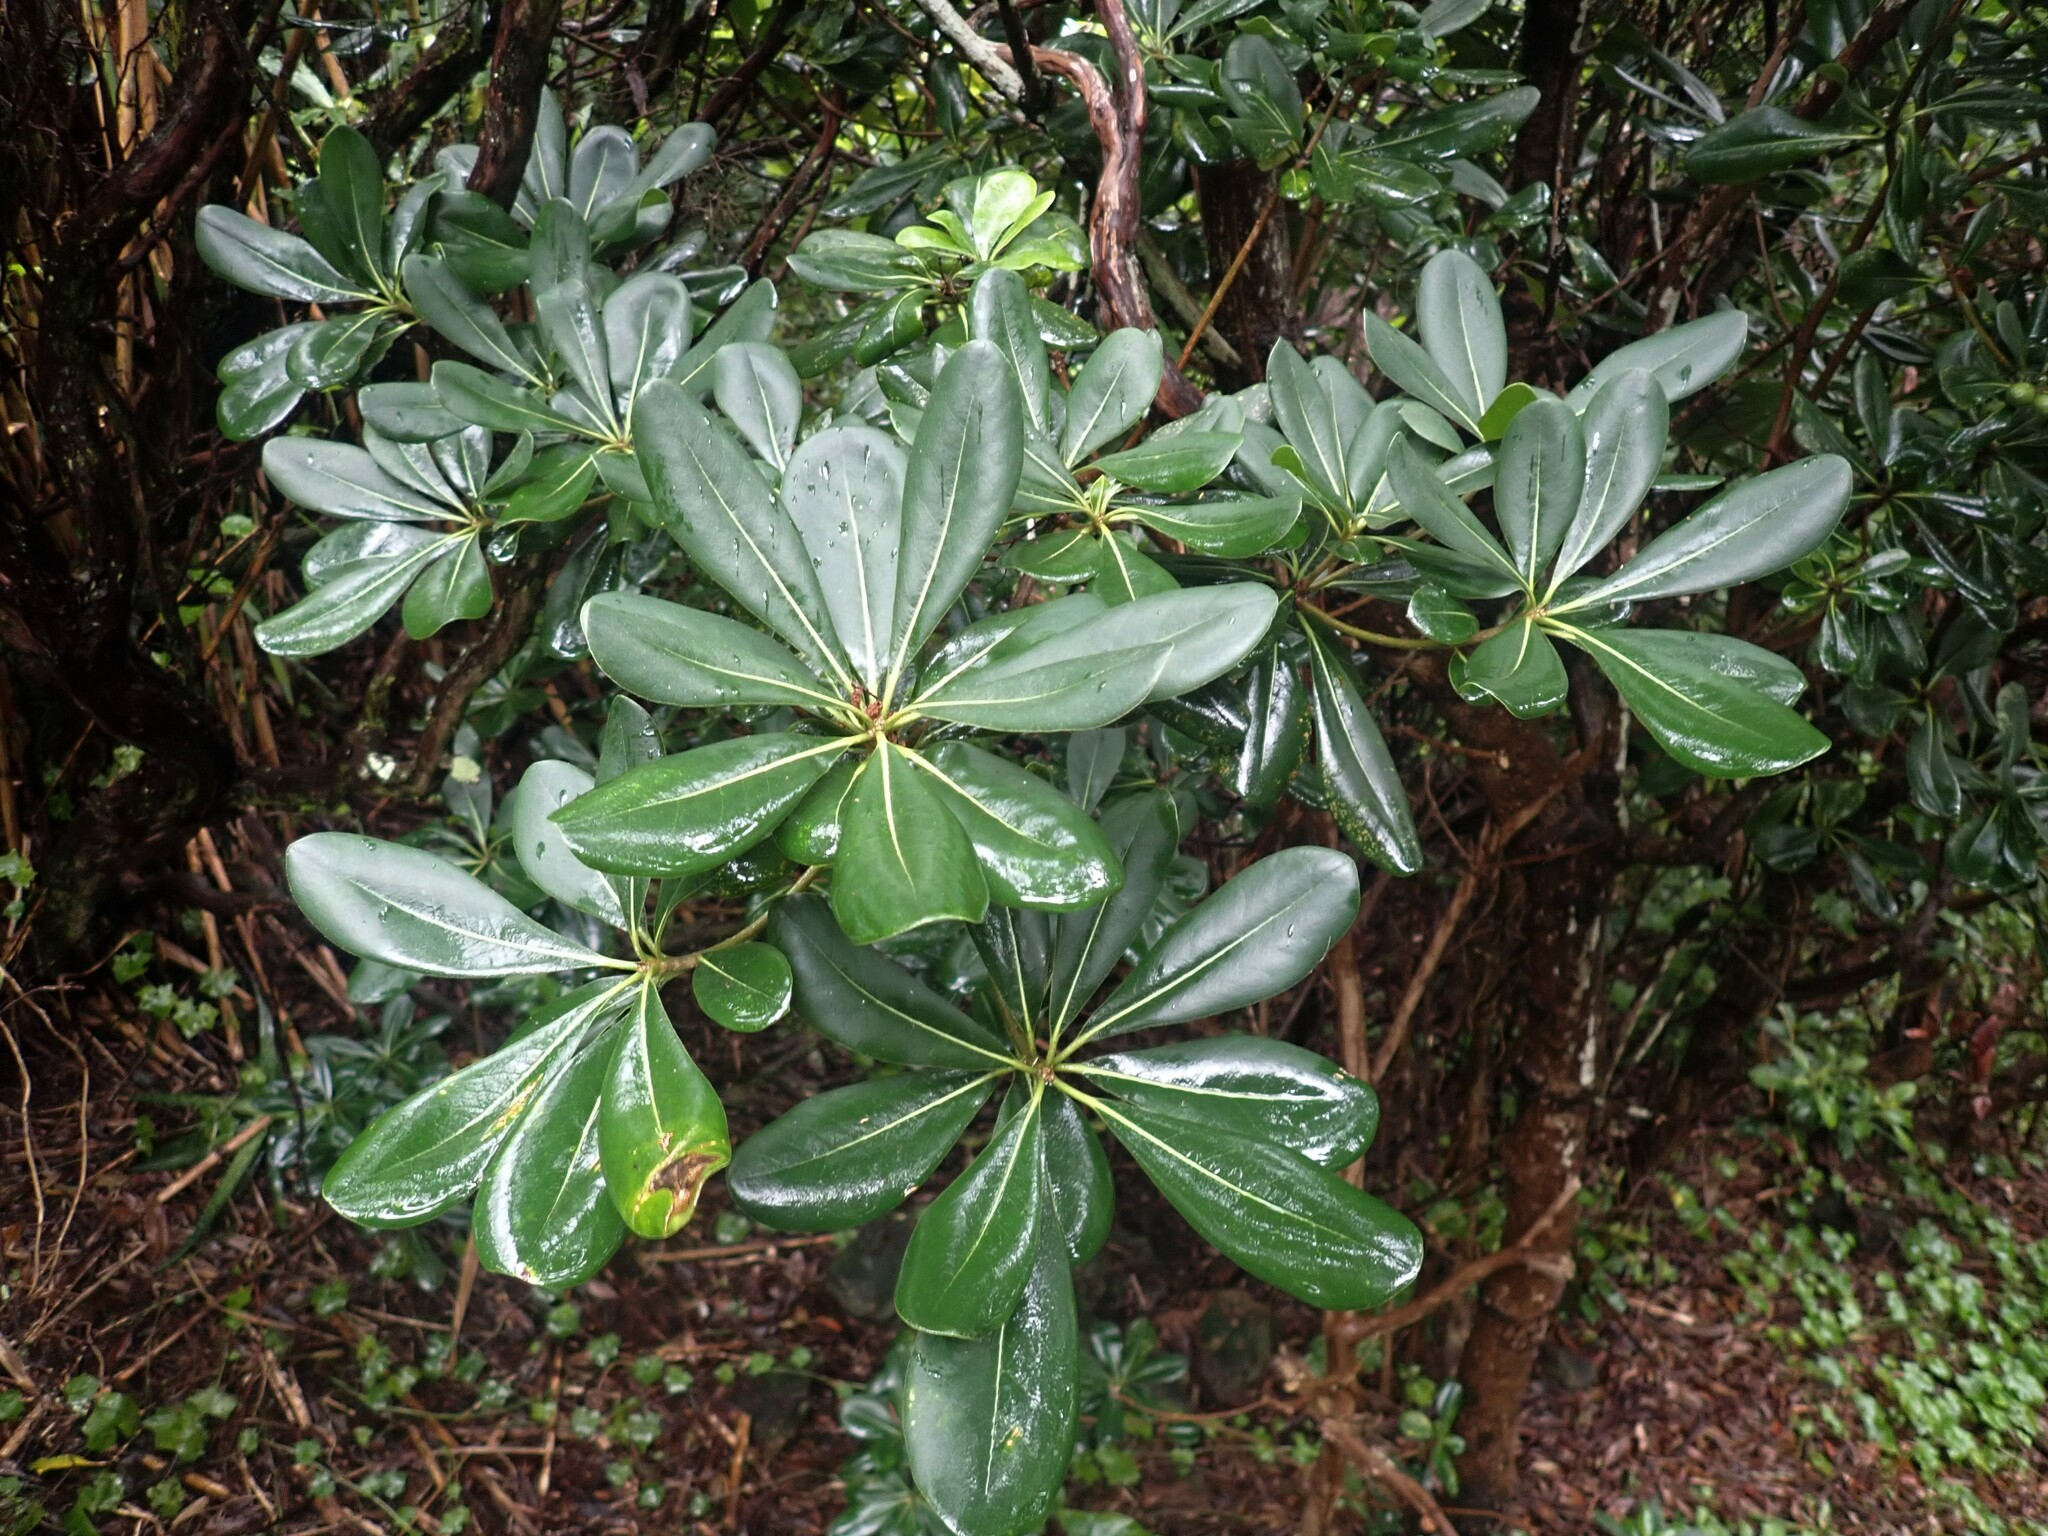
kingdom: Plantae
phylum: Tracheophyta
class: Magnoliopsida
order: Apiales
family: Pittosporaceae
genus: Pittosporum
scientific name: Pittosporum tobira
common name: Japanese cheesewood
